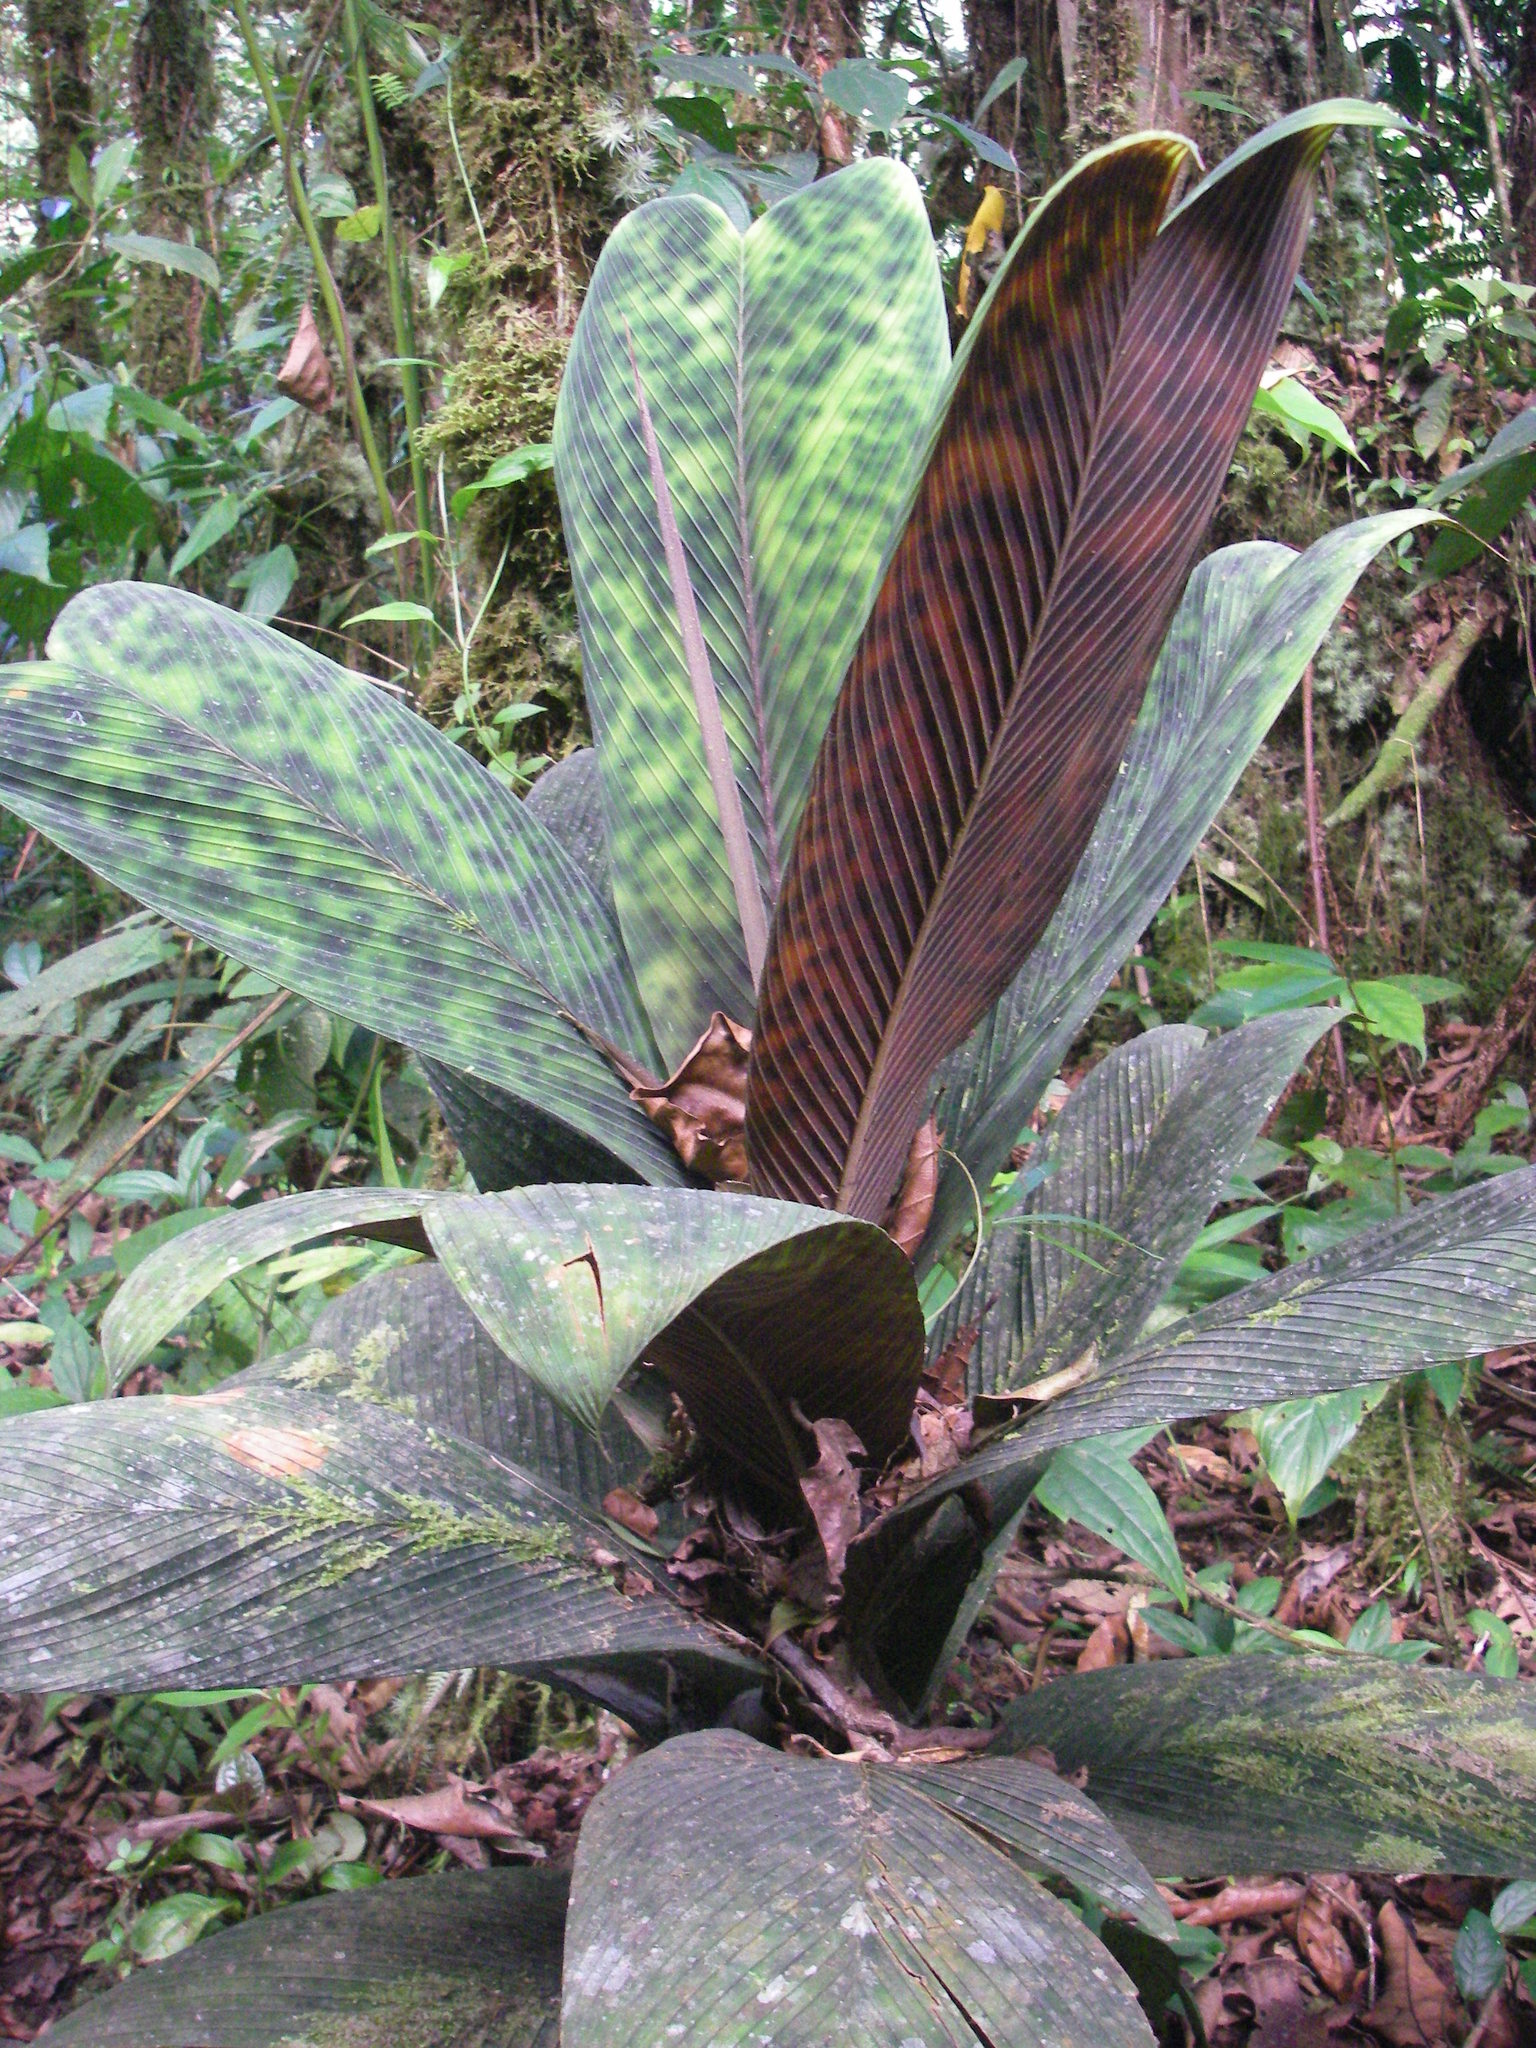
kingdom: Plantae
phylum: Tracheophyta
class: Liliopsida
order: Arecales
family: Arecaceae
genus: Geonoma
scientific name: Geonoma epetiolata
